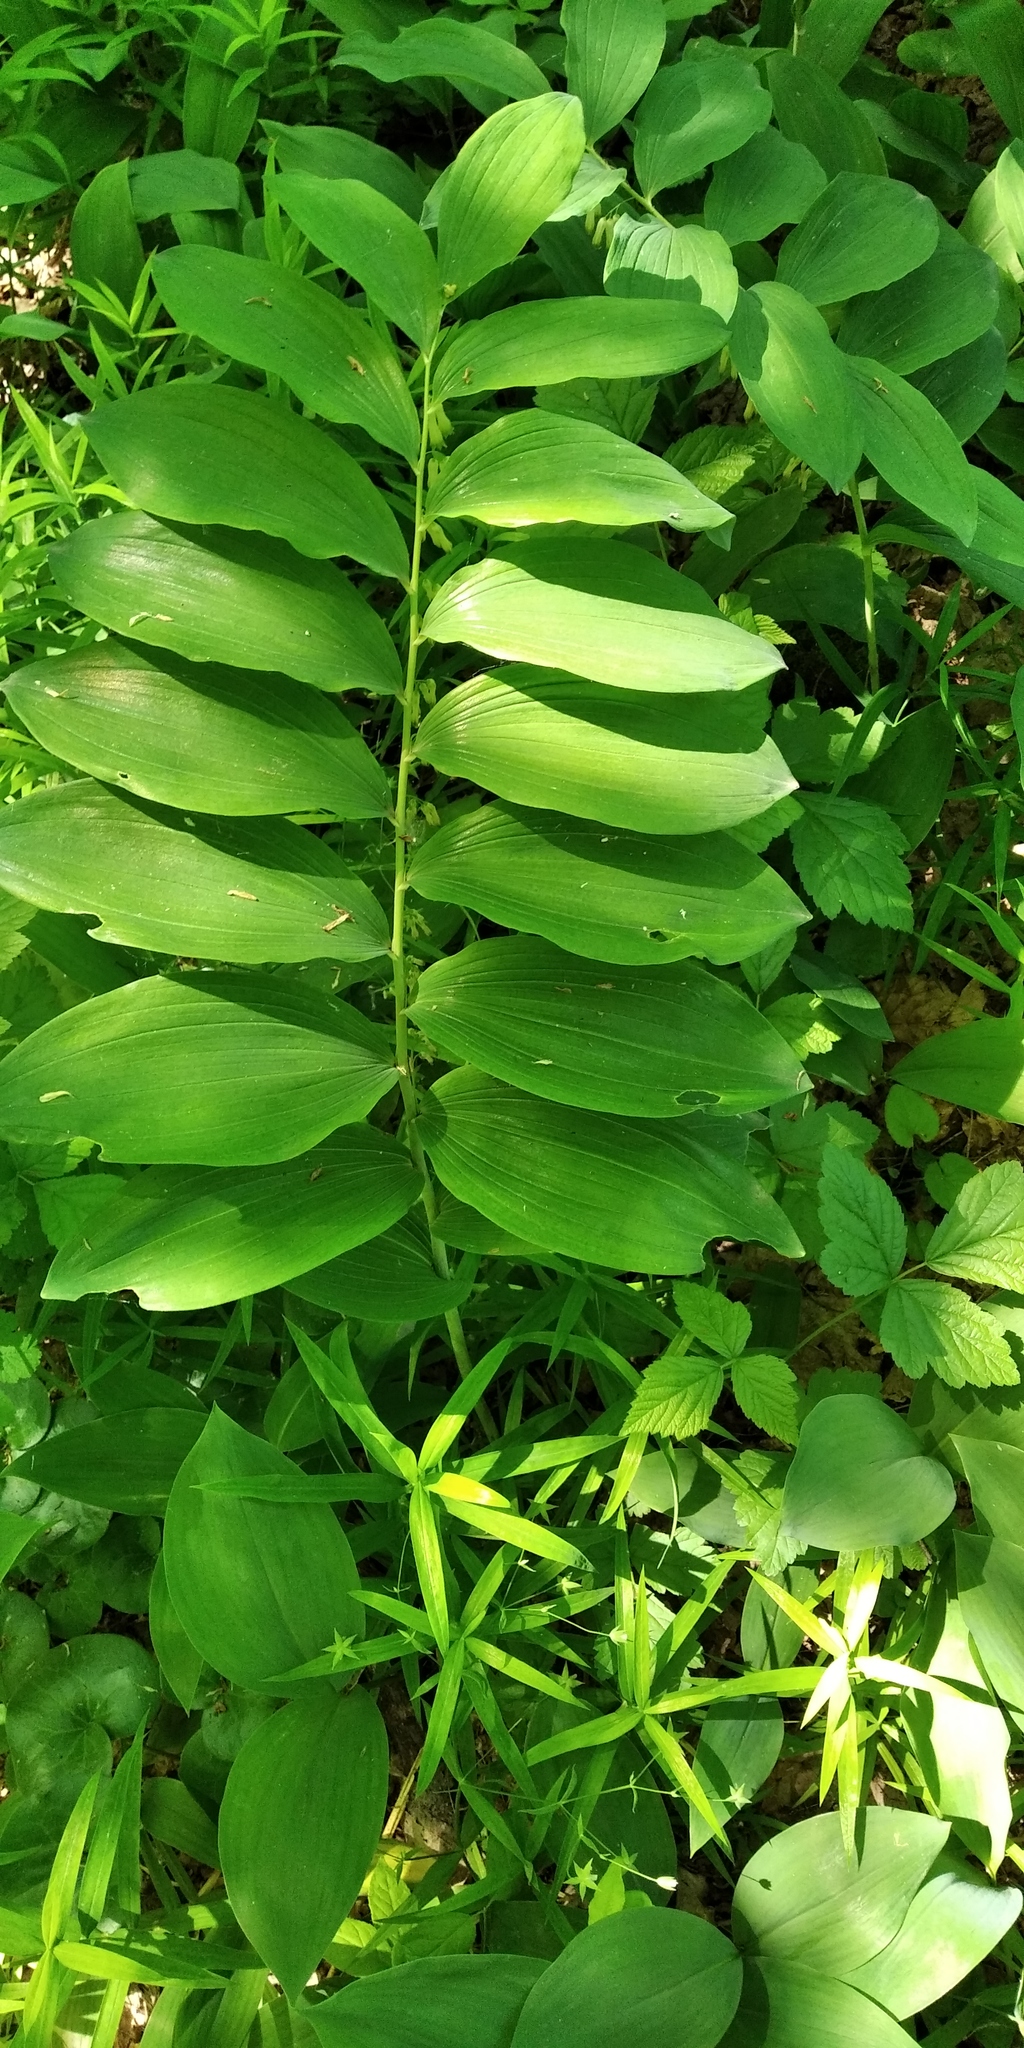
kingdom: Plantae
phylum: Tracheophyta
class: Liliopsida
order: Asparagales
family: Asparagaceae
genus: Polygonatum
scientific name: Polygonatum multiflorum
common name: Solomon's-seal
